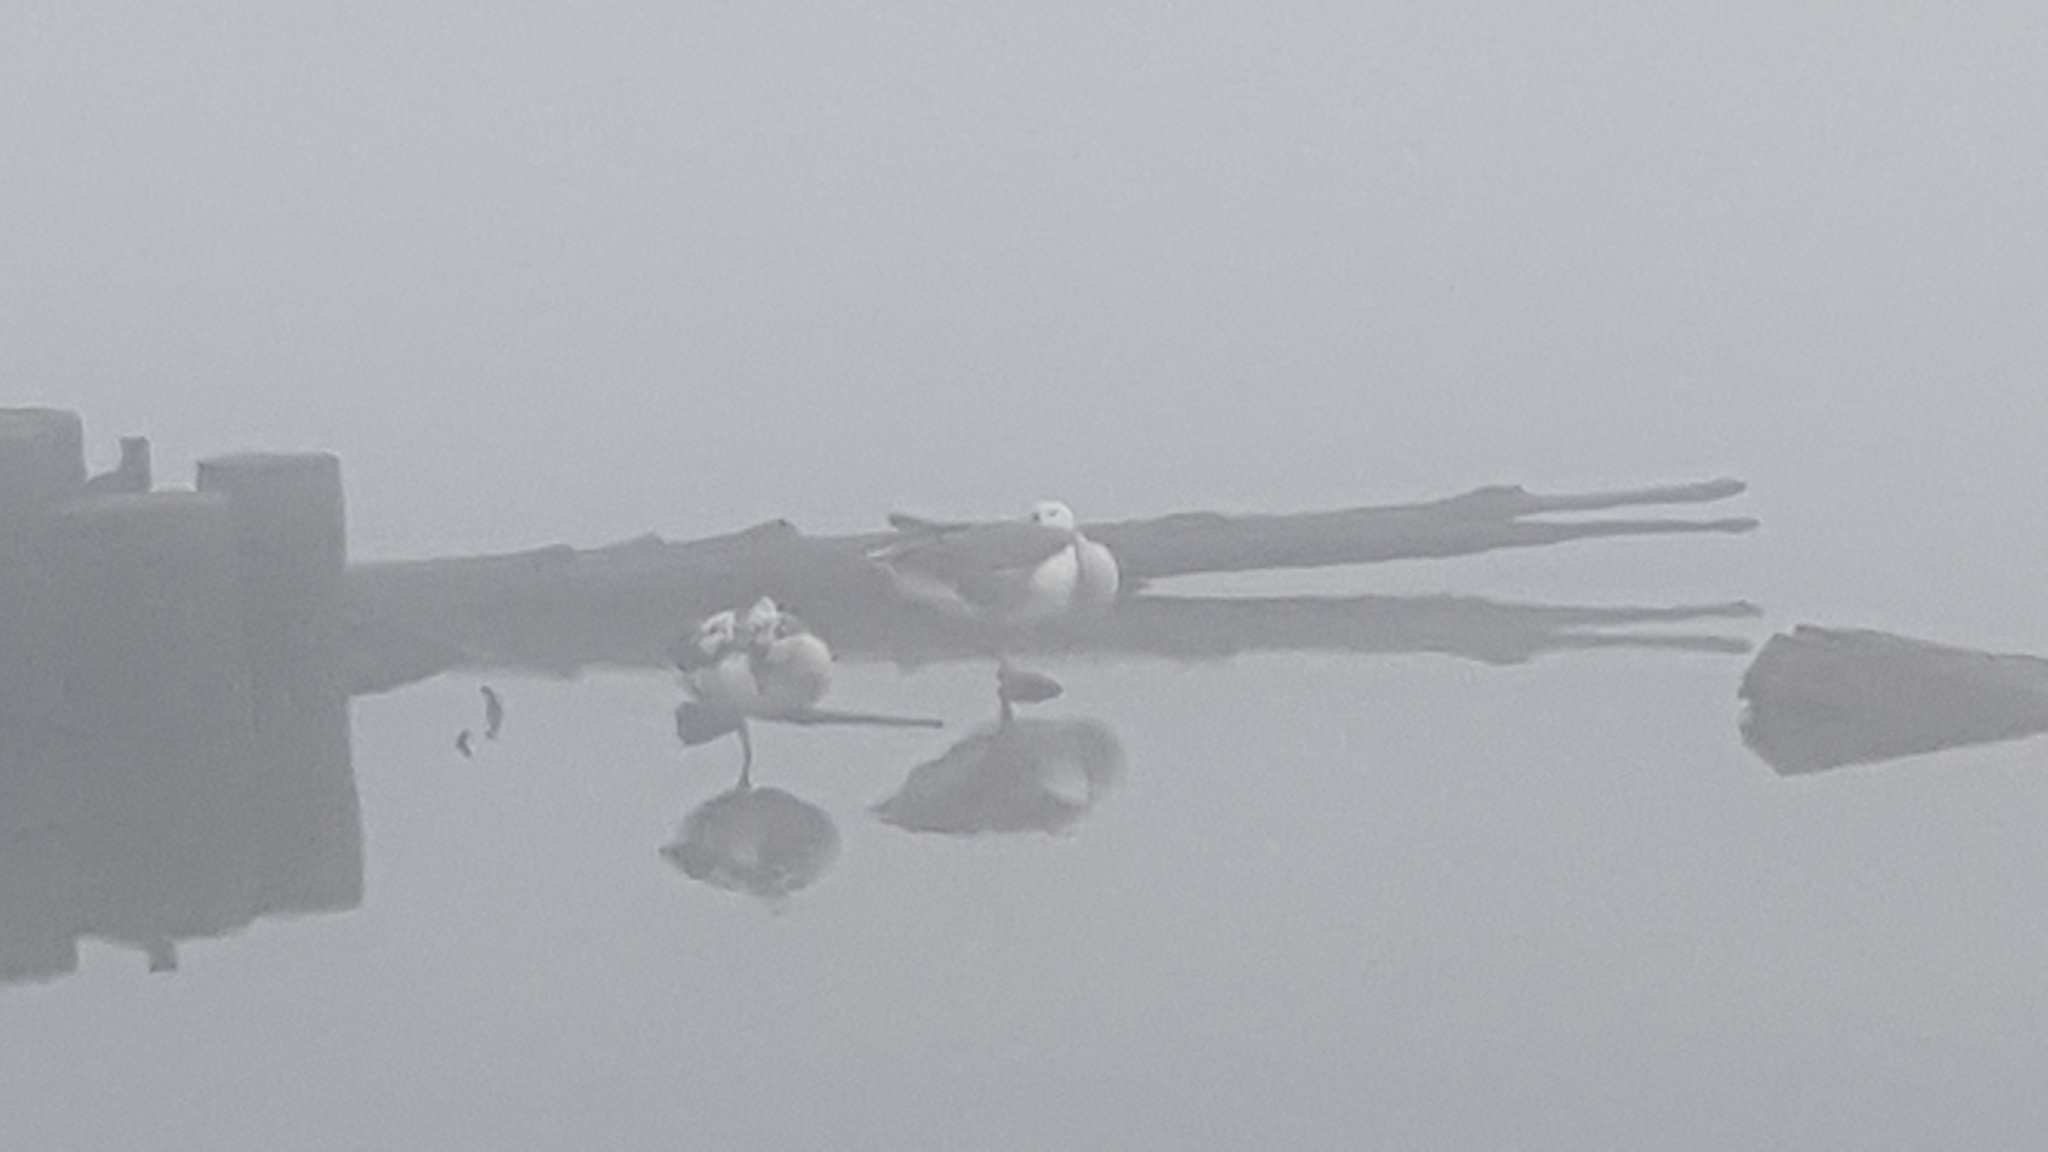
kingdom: Animalia
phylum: Chordata
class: Aves
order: Anseriformes
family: Anatidae
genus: Anser
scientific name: Anser caerulescens
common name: Snow goose
